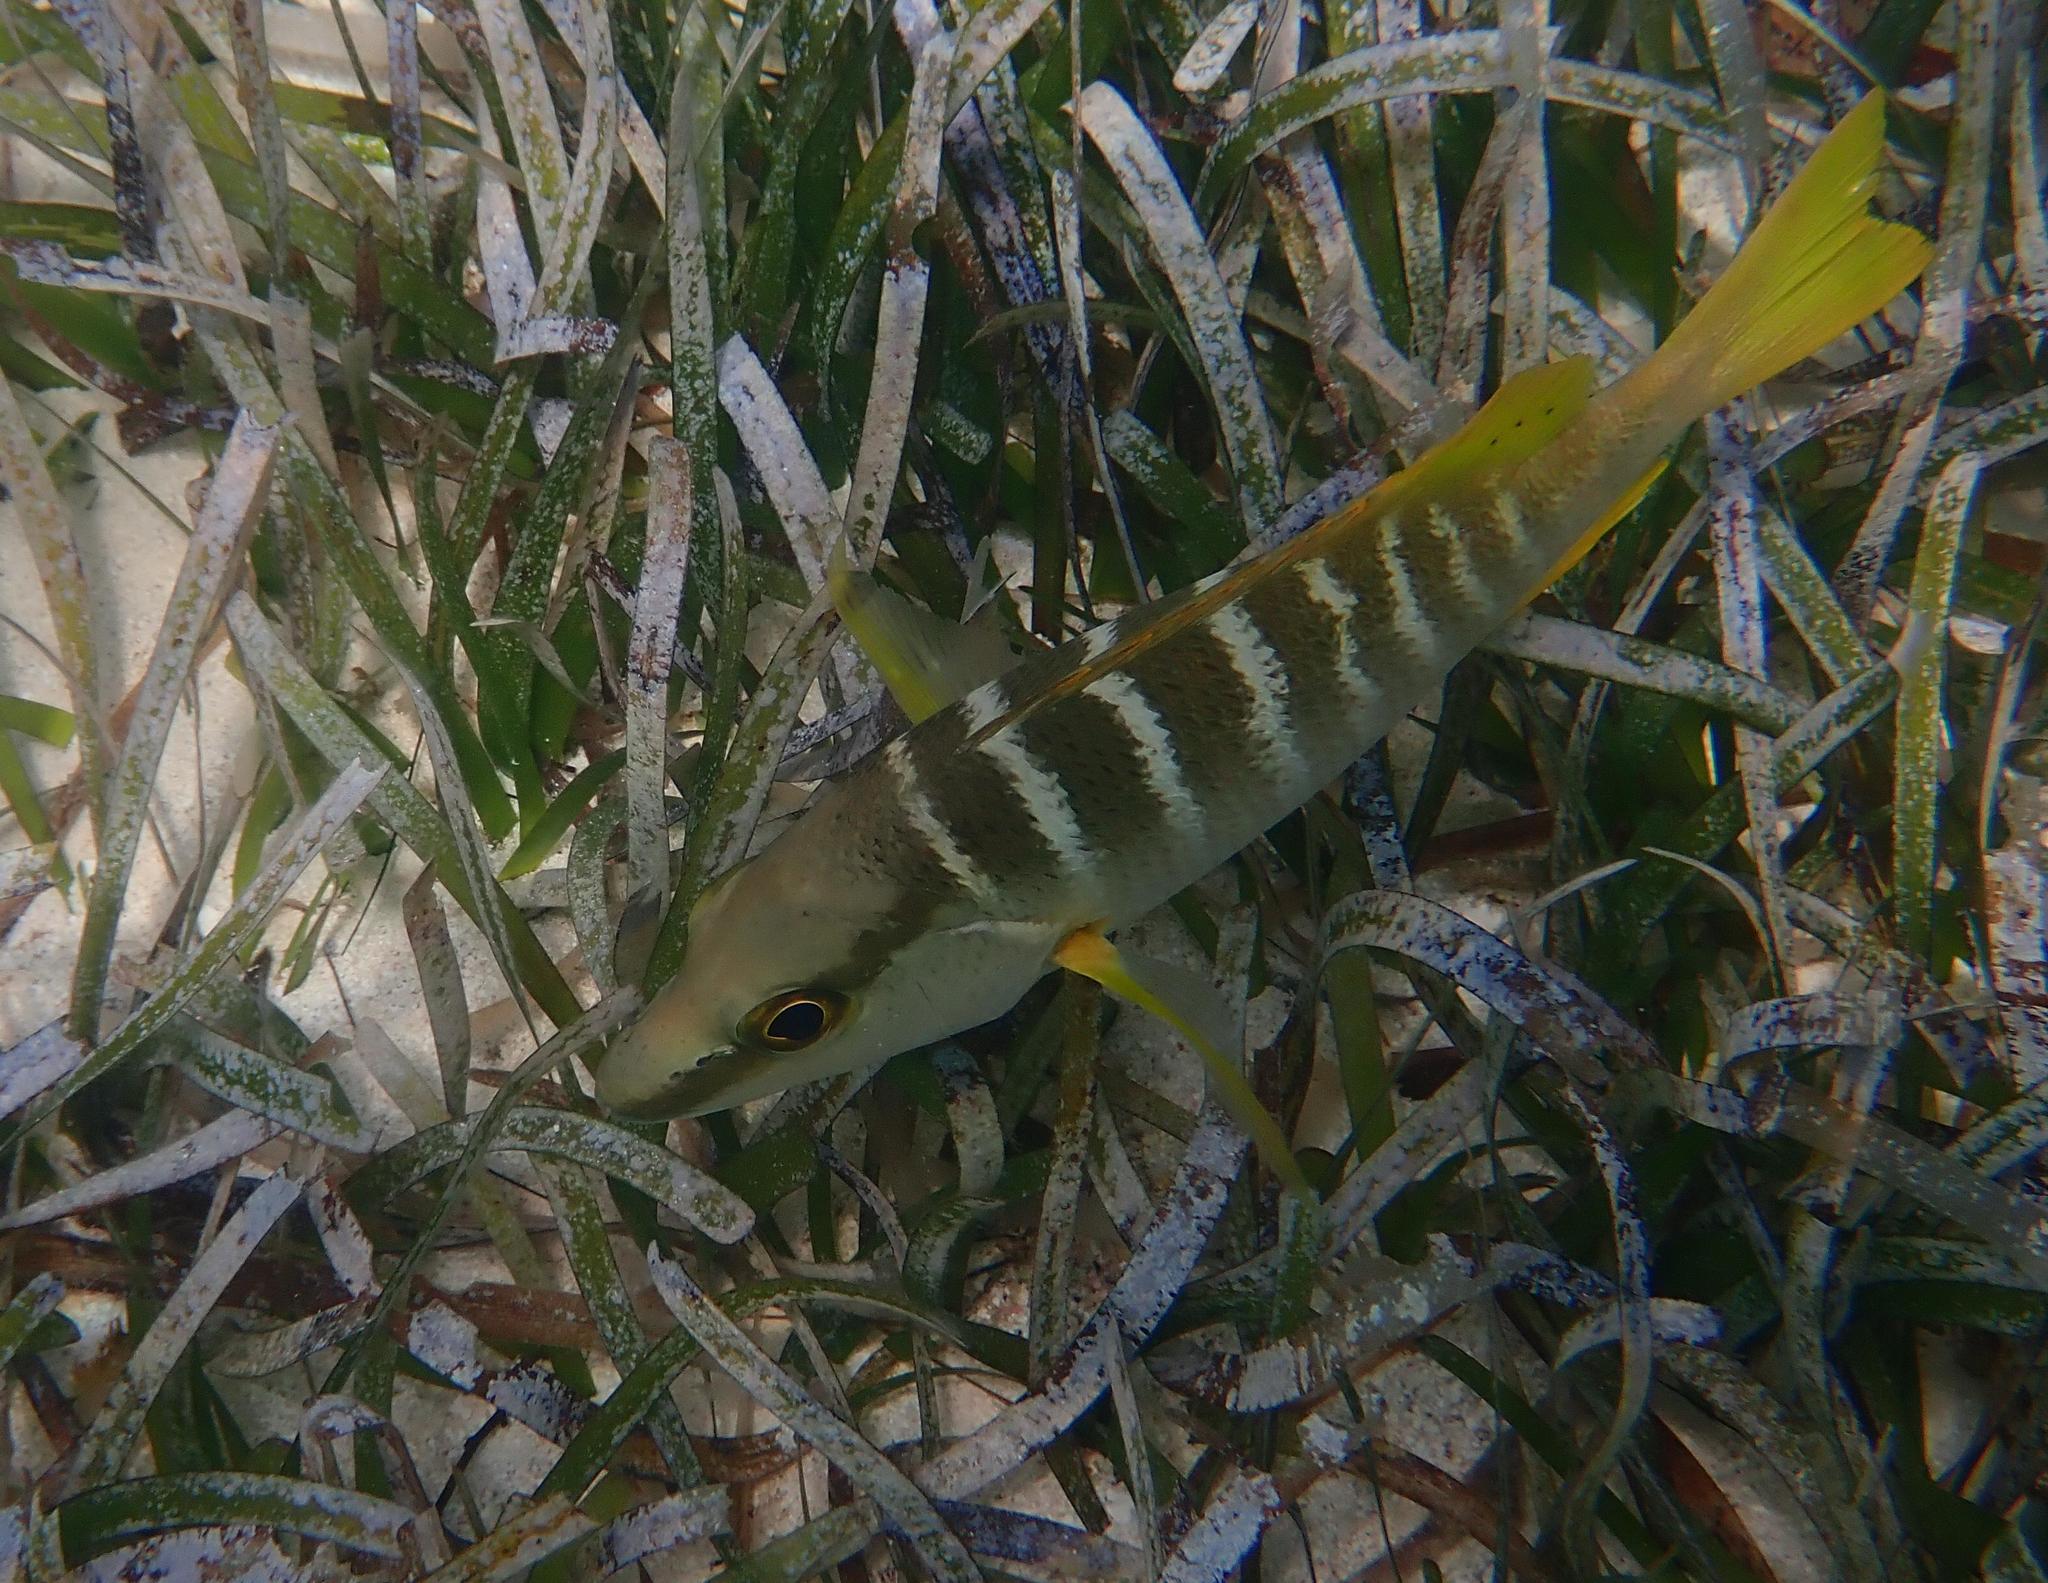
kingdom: Animalia
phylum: Chordata
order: Perciformes
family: Lutjanidae
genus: Lutjanus
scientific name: Lutjanus apodus
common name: Schoolmaster
